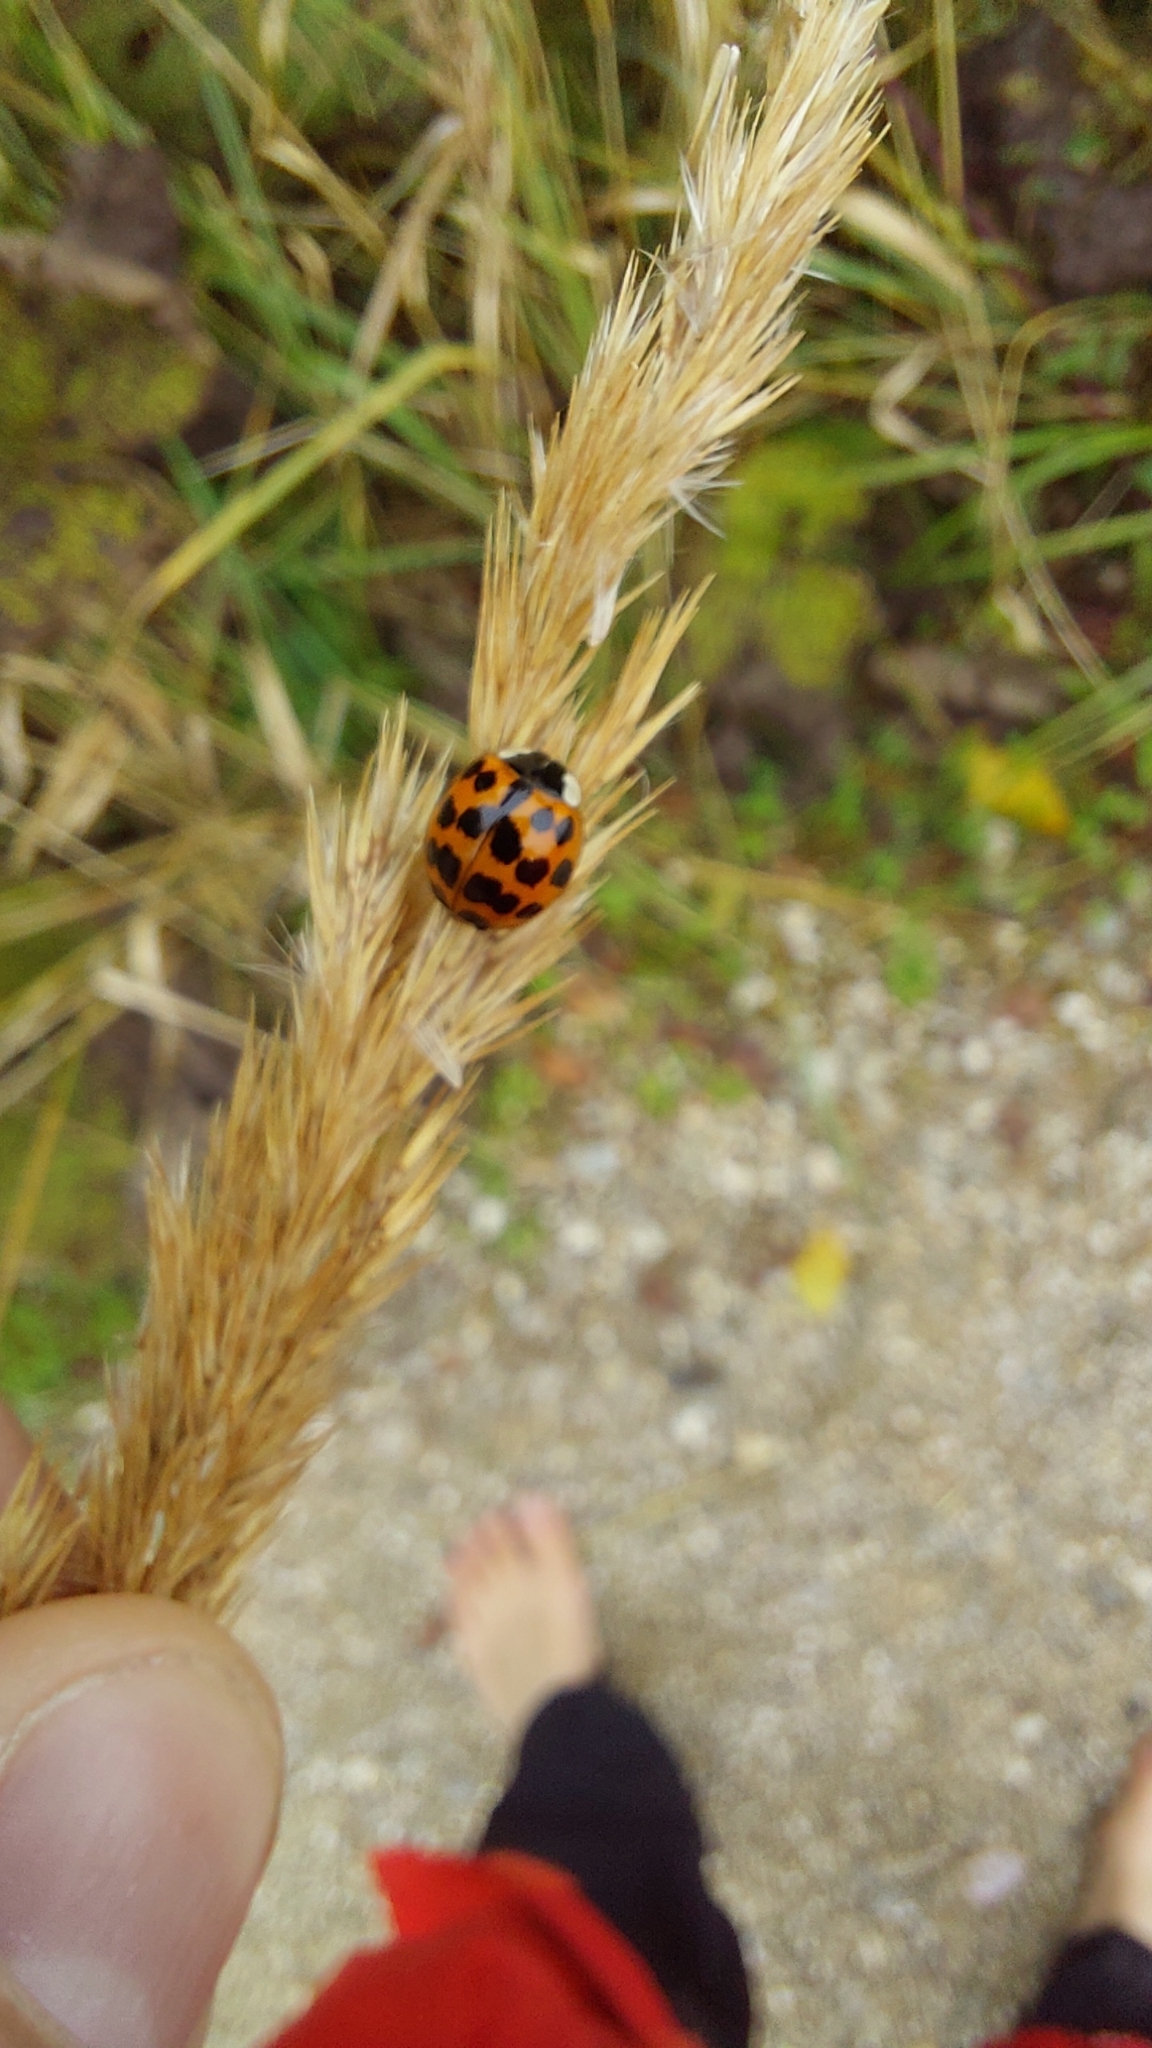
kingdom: Animalia
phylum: Arthropoda
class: Insecta
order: Coleoptera
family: Coccinellidae
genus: Harmonia
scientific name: Harmonia axyridis
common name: Harlequin ladybird
